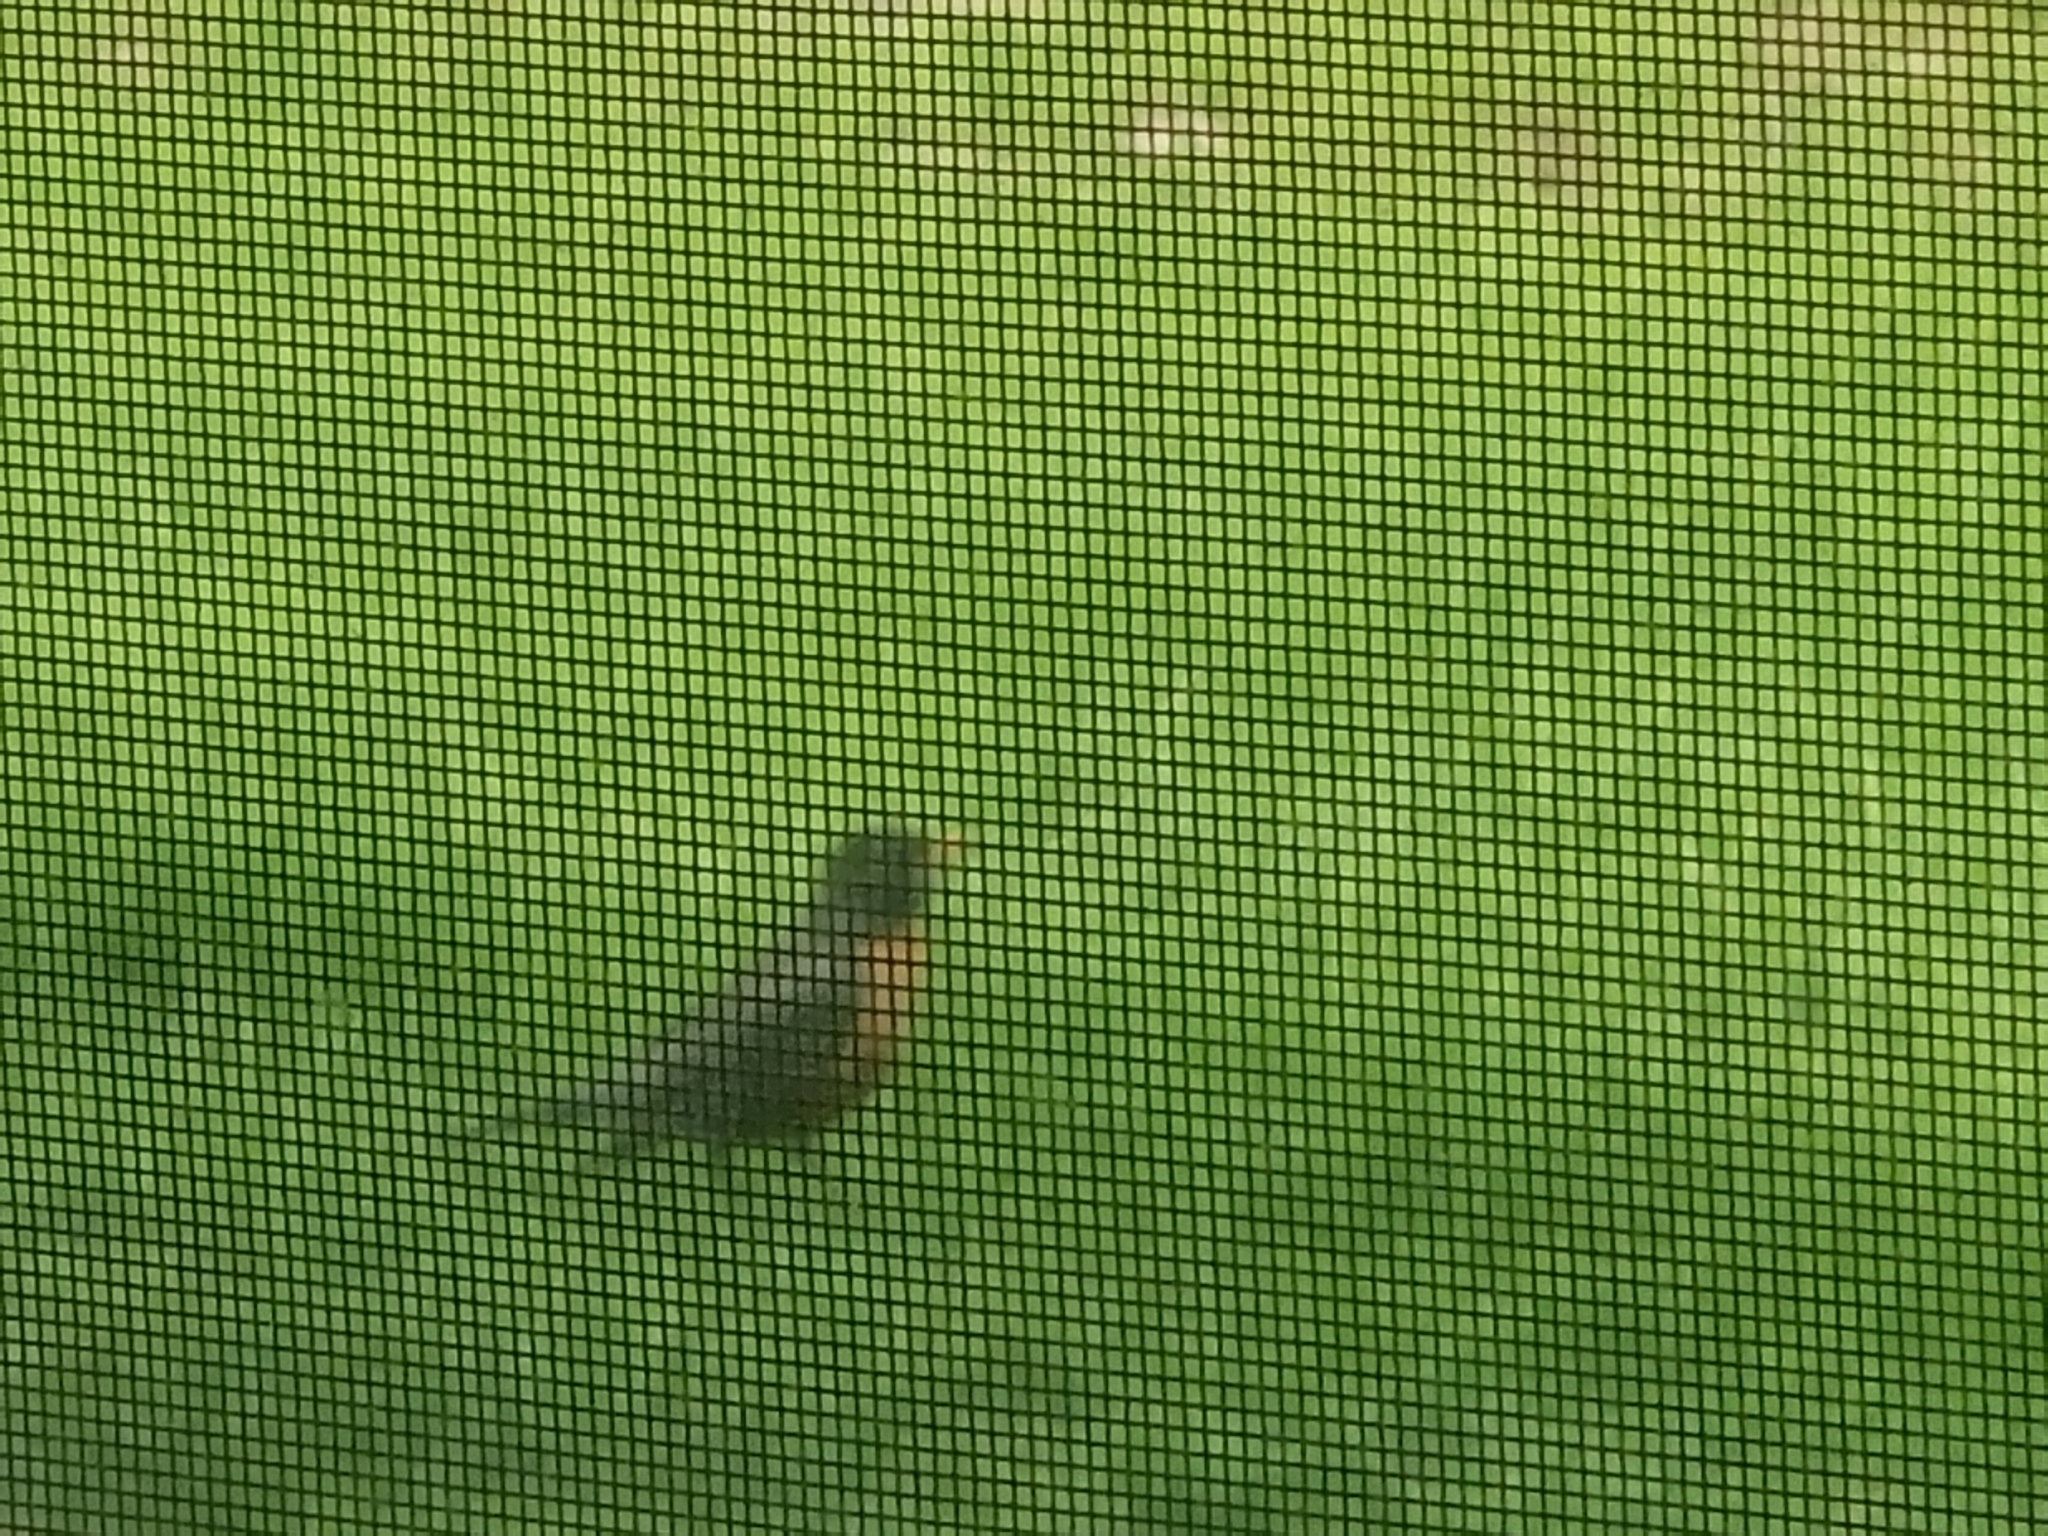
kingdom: Animalia
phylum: Chordata
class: Aves
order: Passeriformes
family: Turdidae
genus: Turdus
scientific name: Turdus migratorius
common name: American robin
